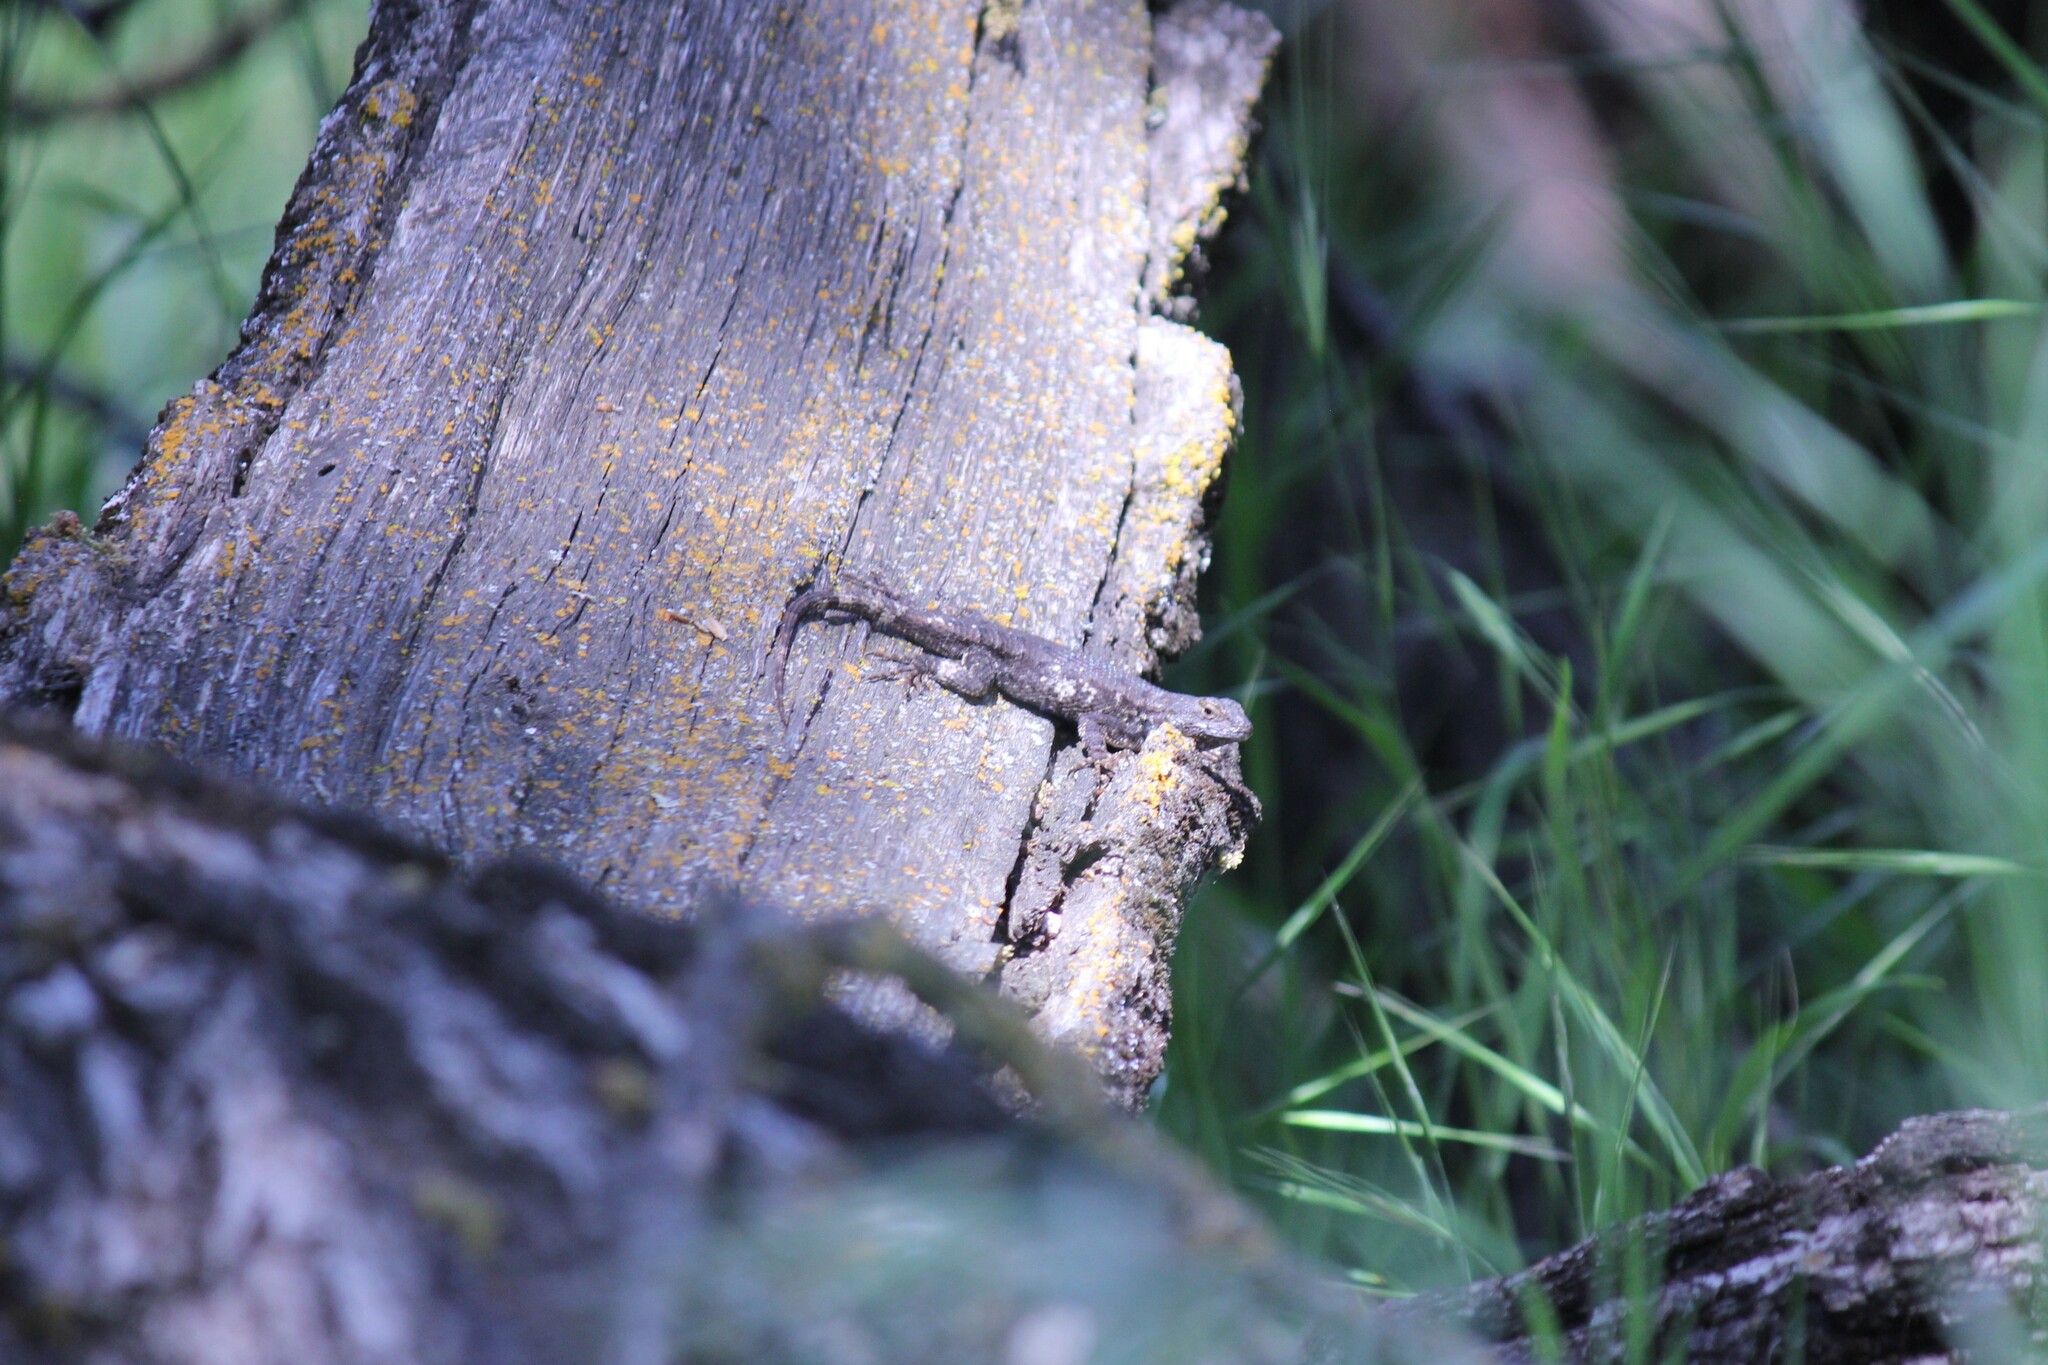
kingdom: Animalia
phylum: Chordata
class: Squamata
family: Phrynosomatidae
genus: Sceloporus
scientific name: Sceloporus occidentalis
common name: Western fence lizard
